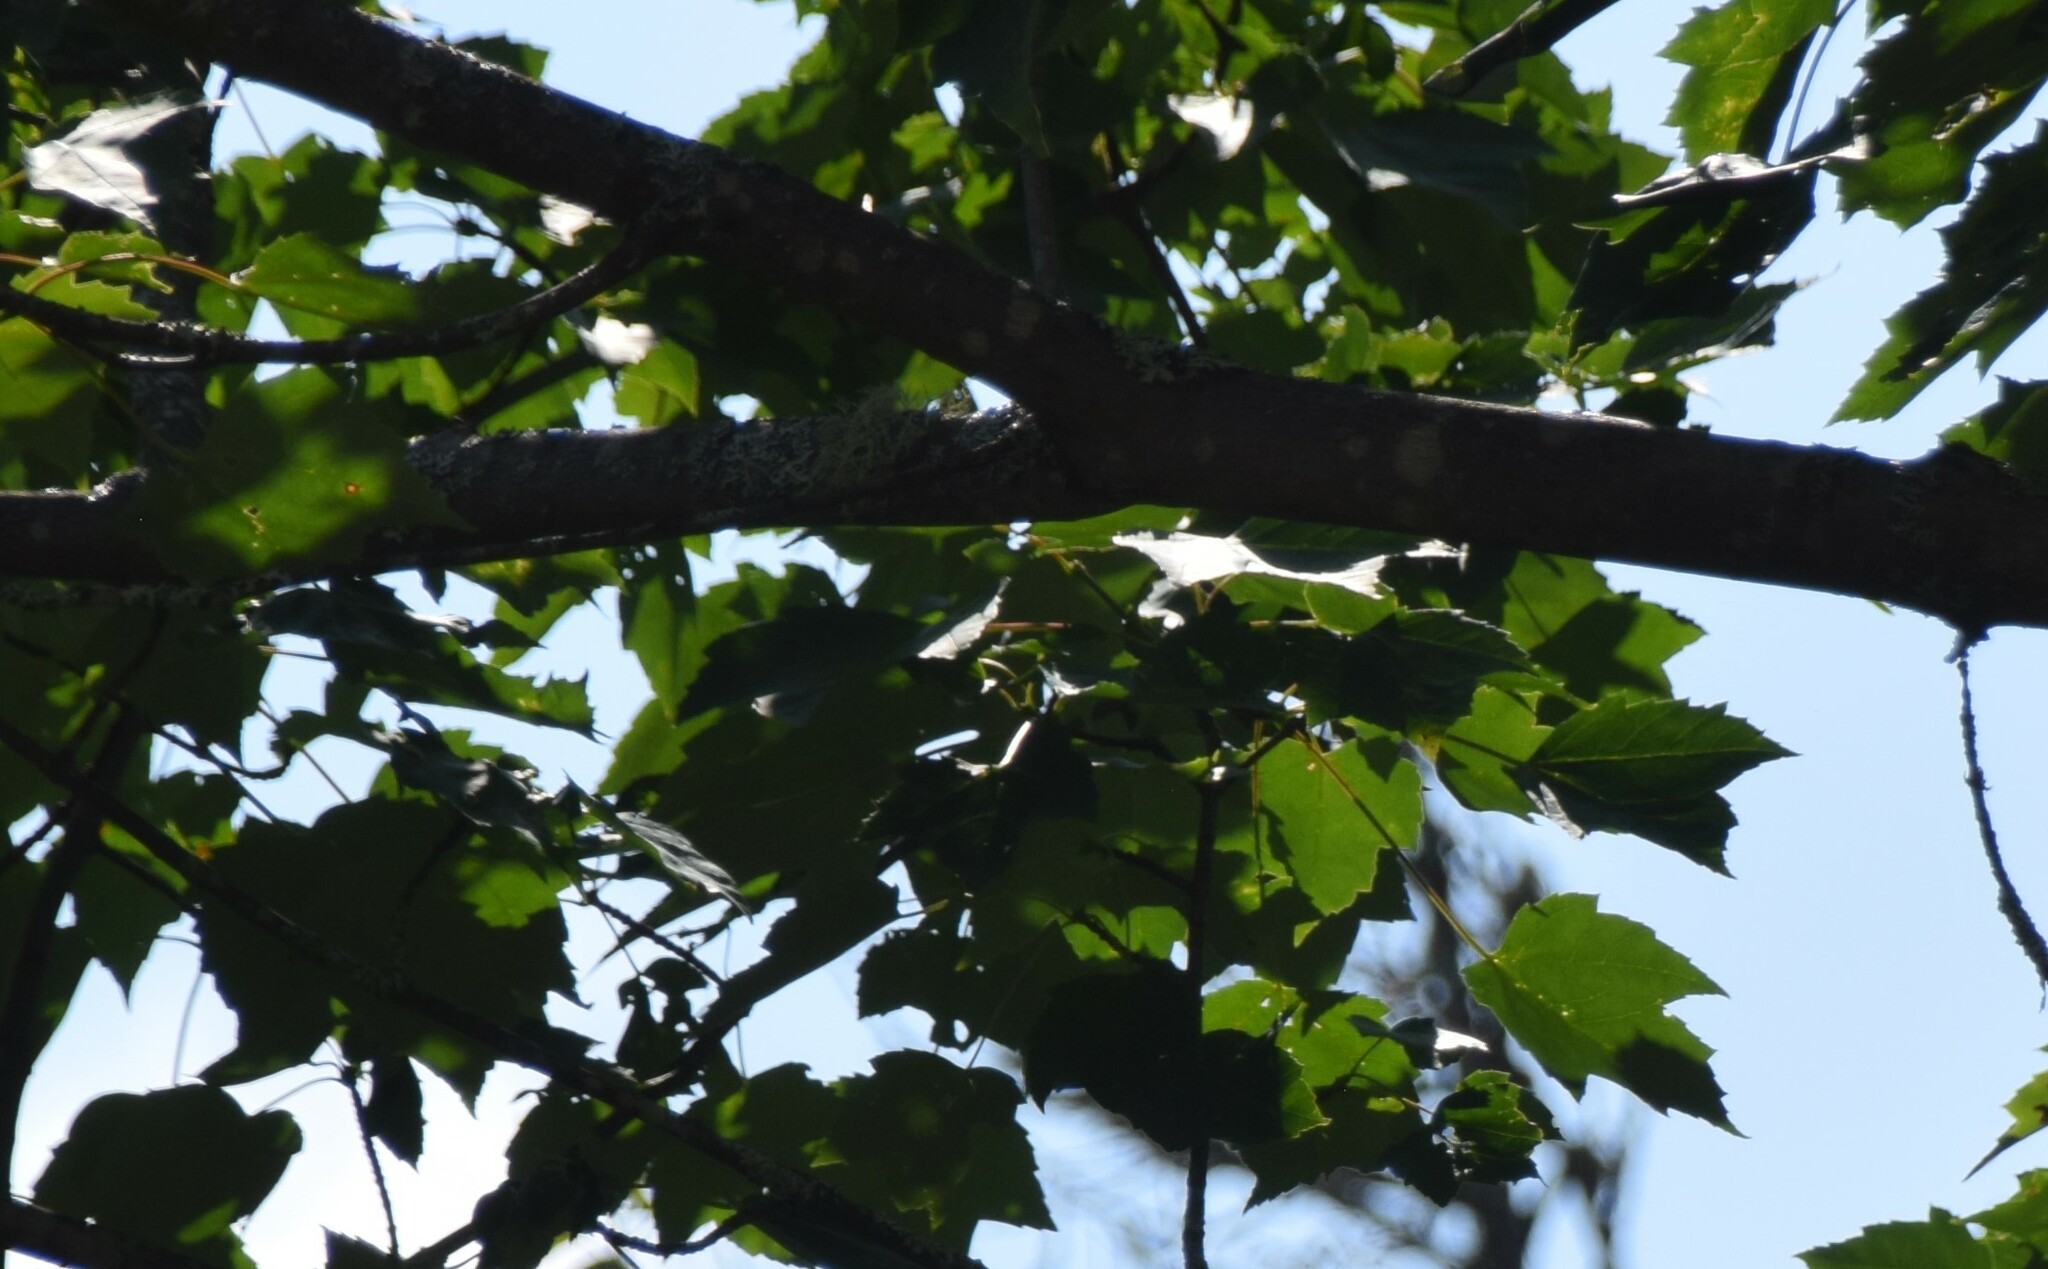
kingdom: Plantae
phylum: Tracheophyta
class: Magnoliopsida
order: Sapindales
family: Sapindaceae
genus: Acer
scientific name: Acer rubrum
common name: Red maple
